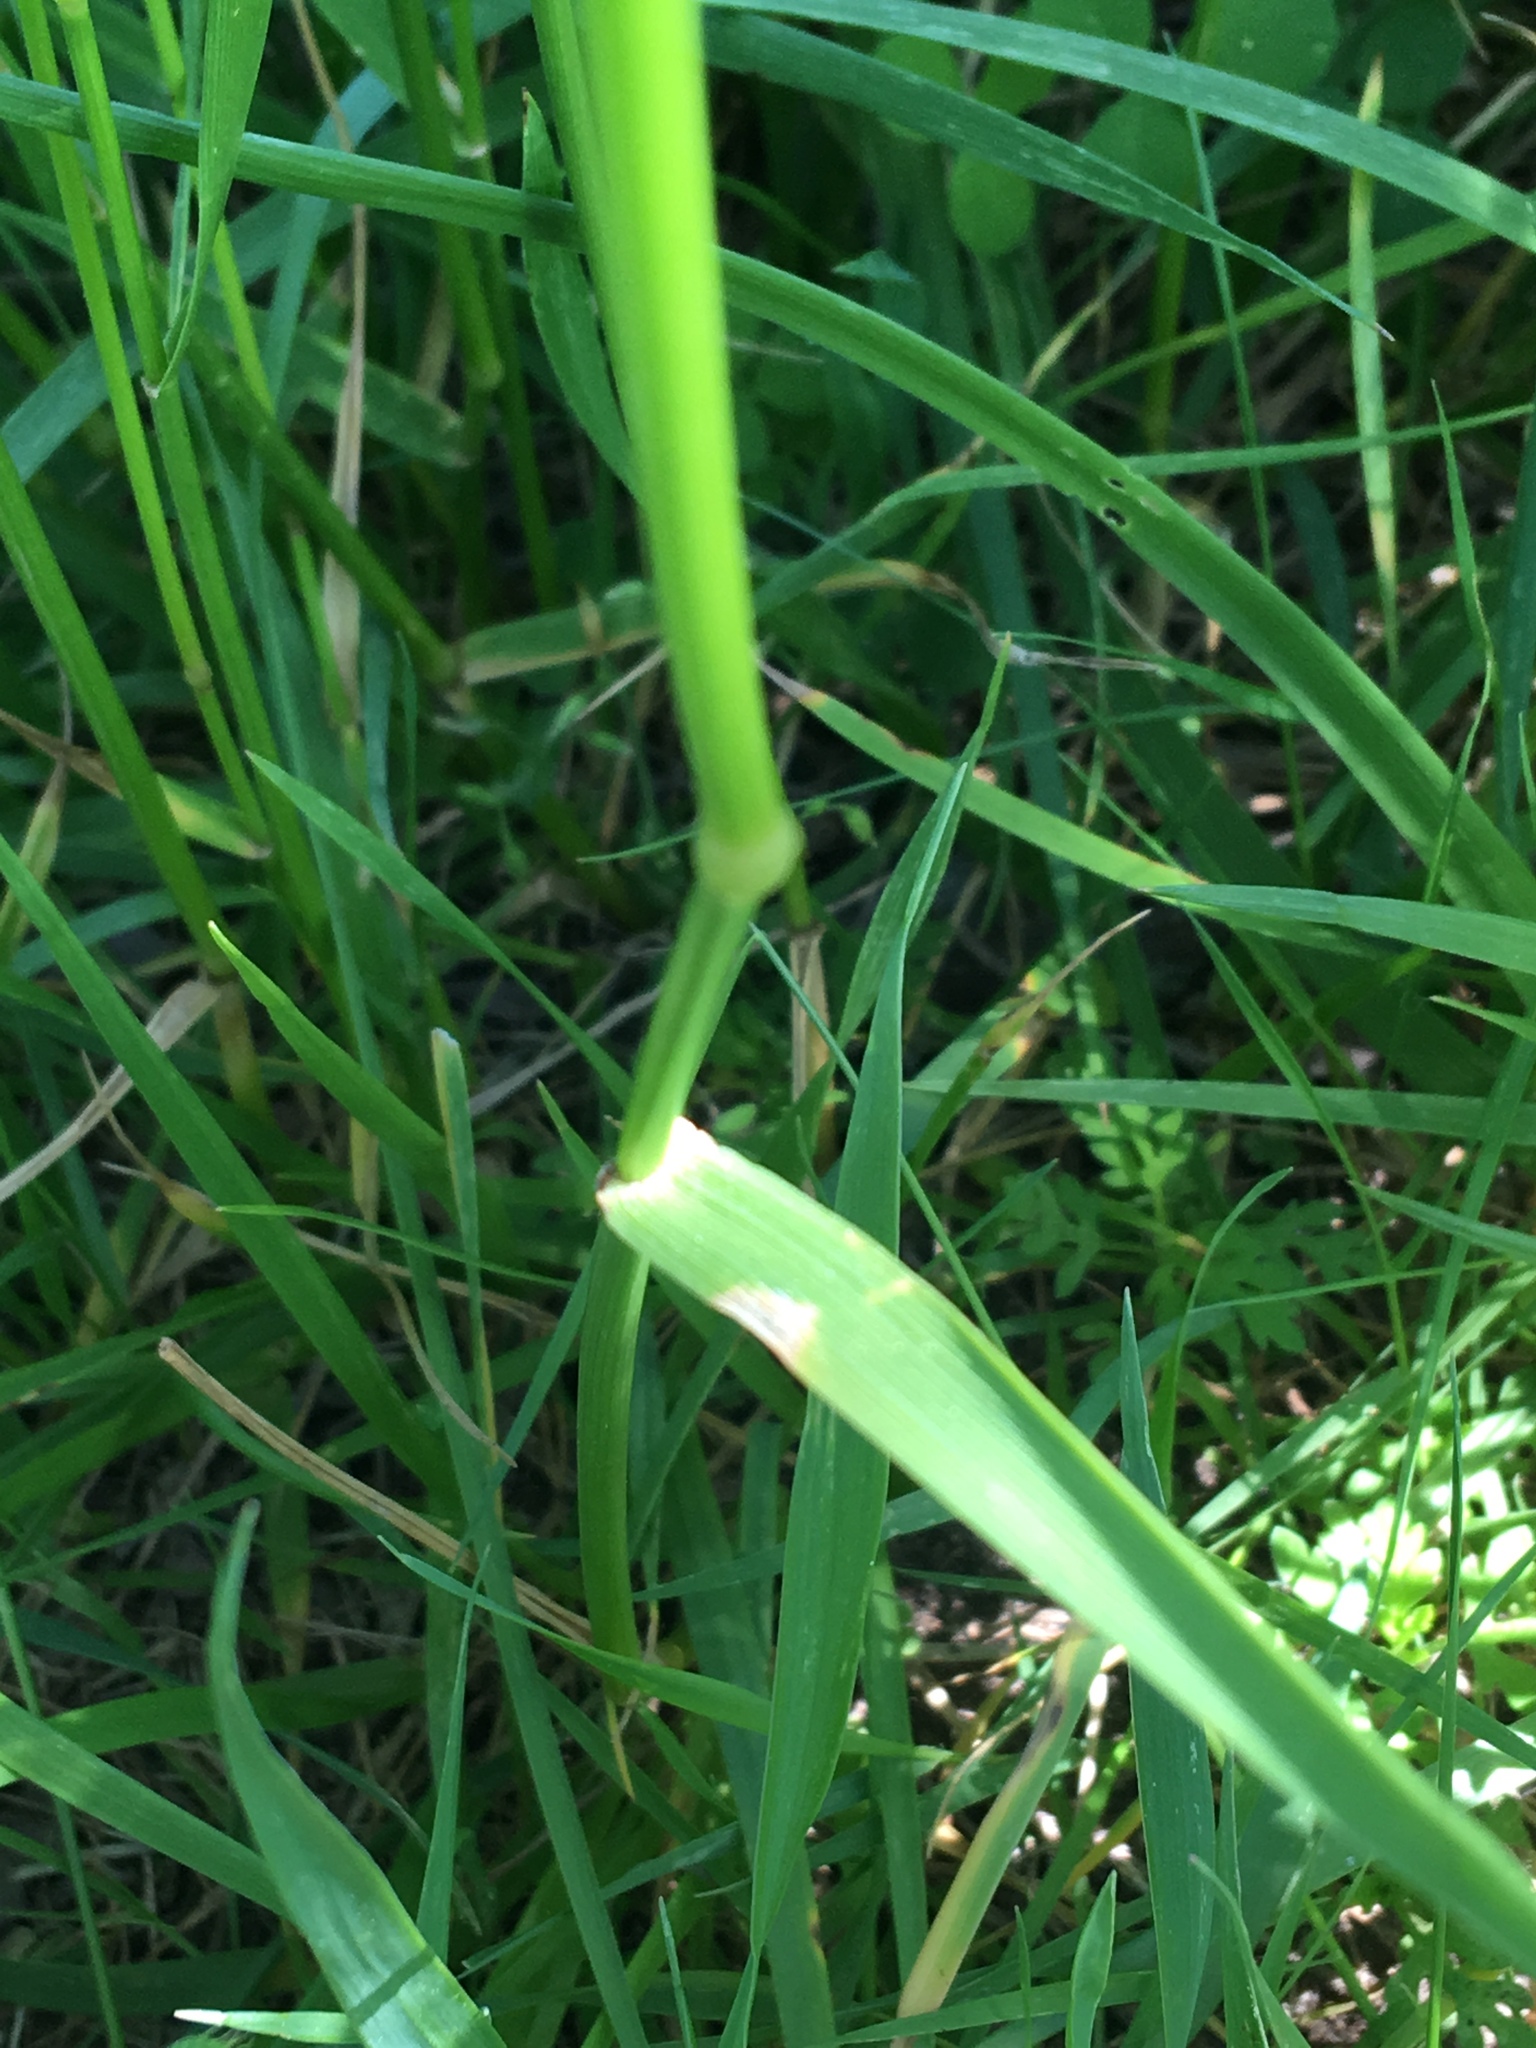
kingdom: Plantae
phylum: Tracheophyta
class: Liliopsida
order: Poales
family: Poaceae
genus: Poa
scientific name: Poa pratensis
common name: Kentucky bluegrass
